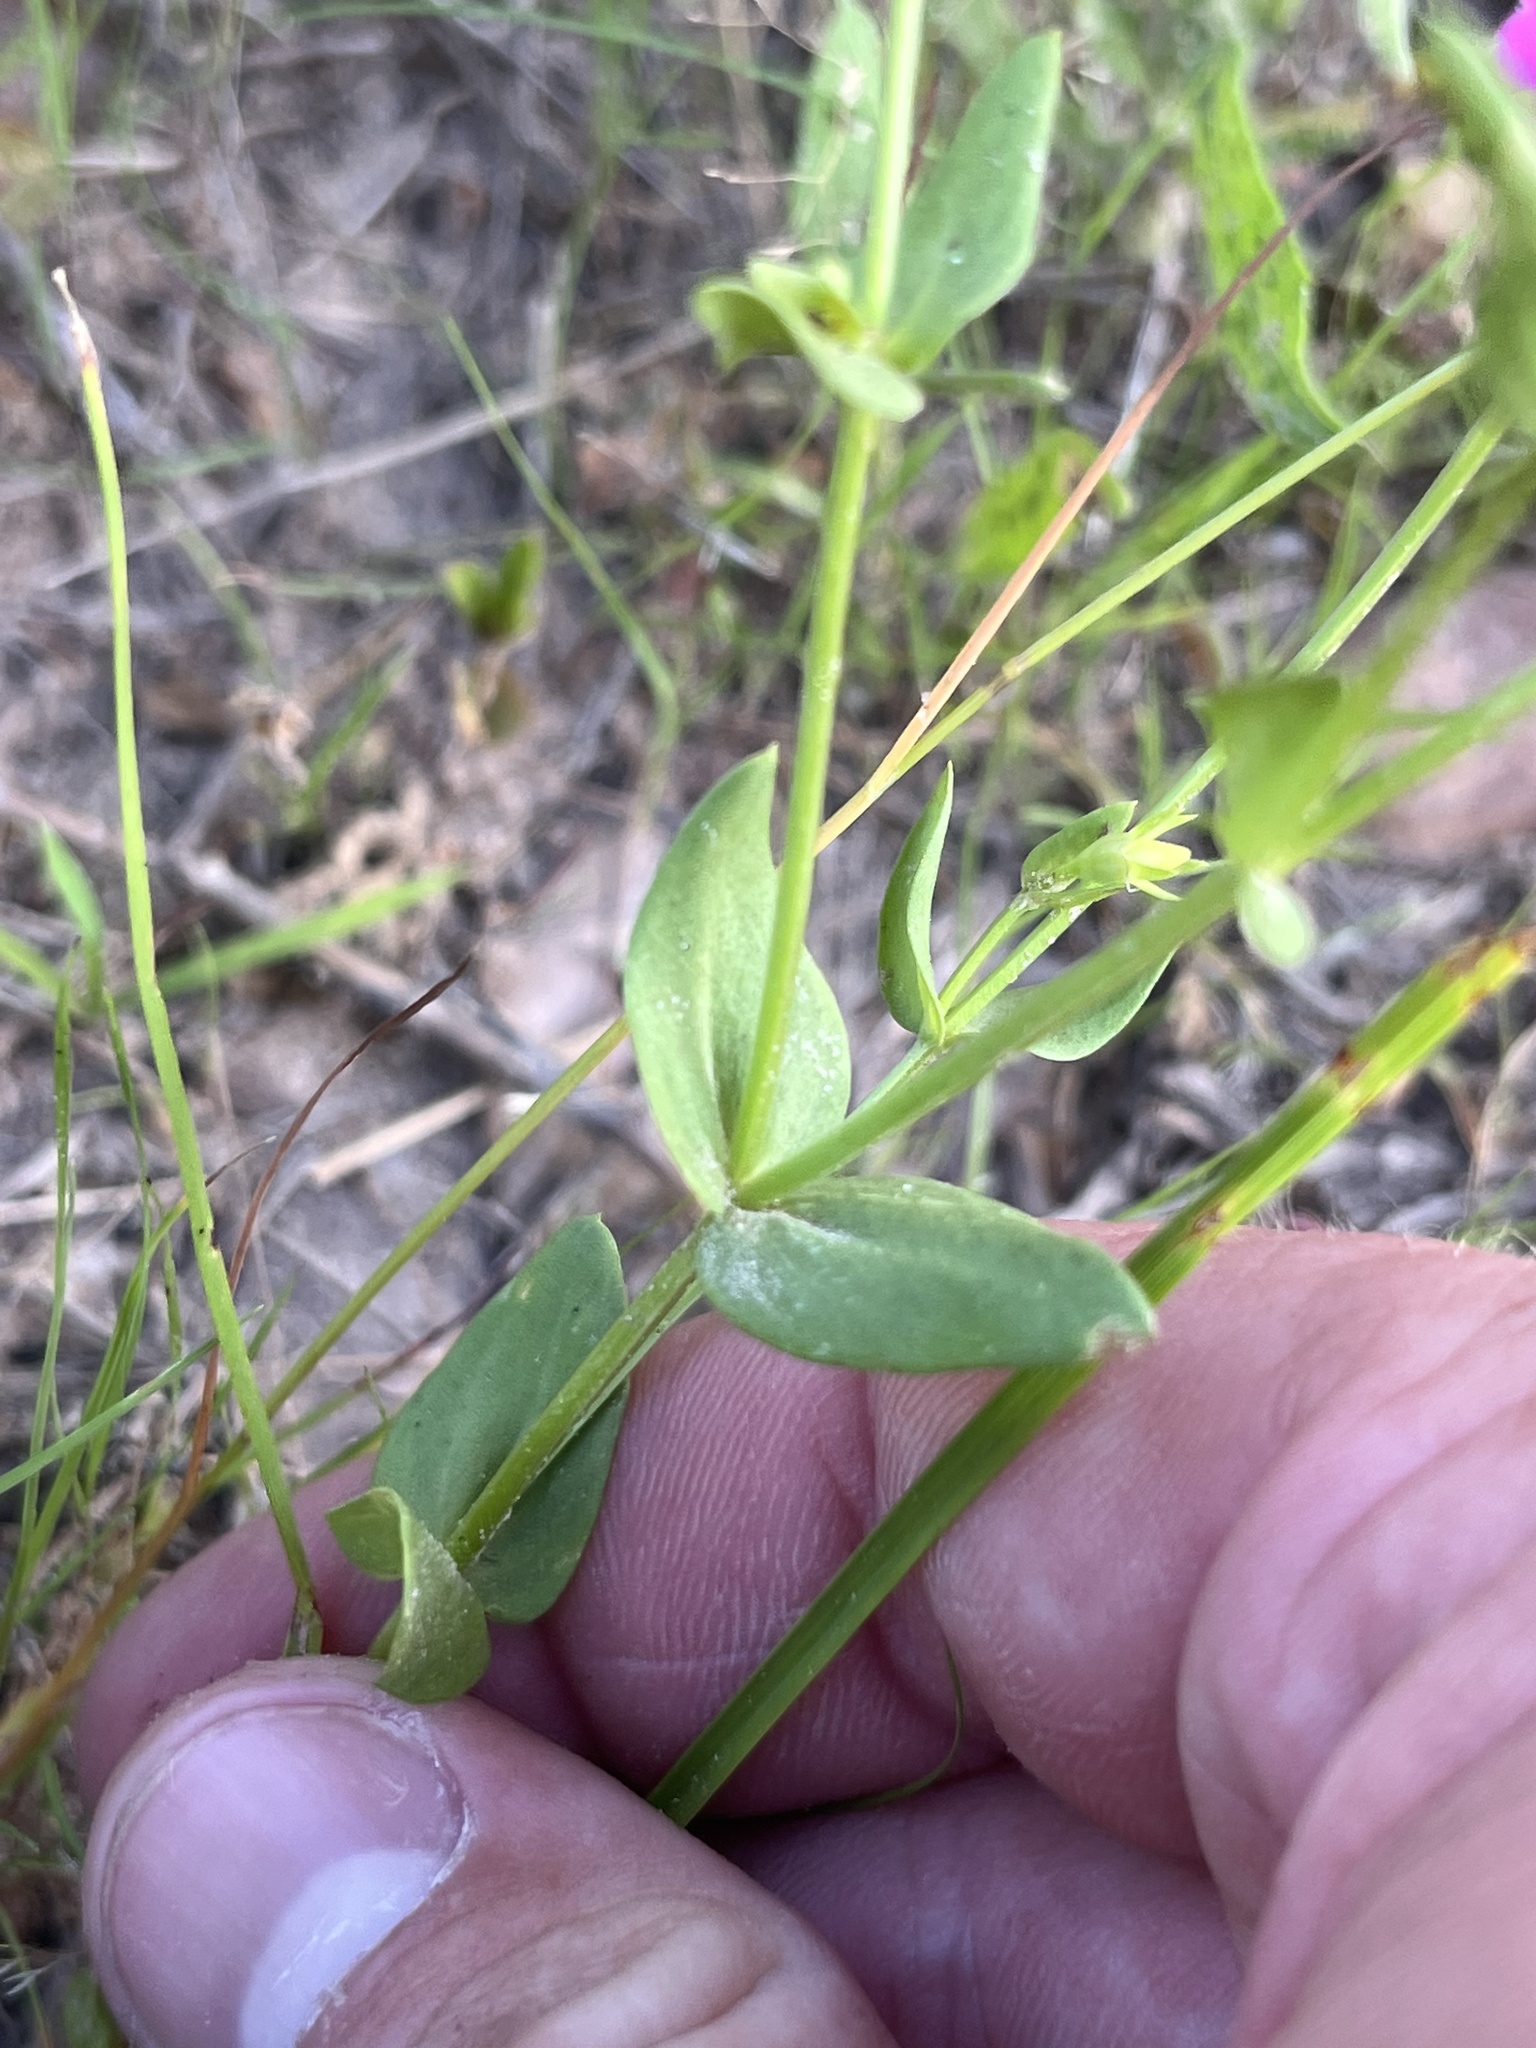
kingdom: Plantae
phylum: Tracheophyta
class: Magnoliopsida
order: Gentianales
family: Gentianaceae
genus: Sabatia
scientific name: Sabatia campestris
